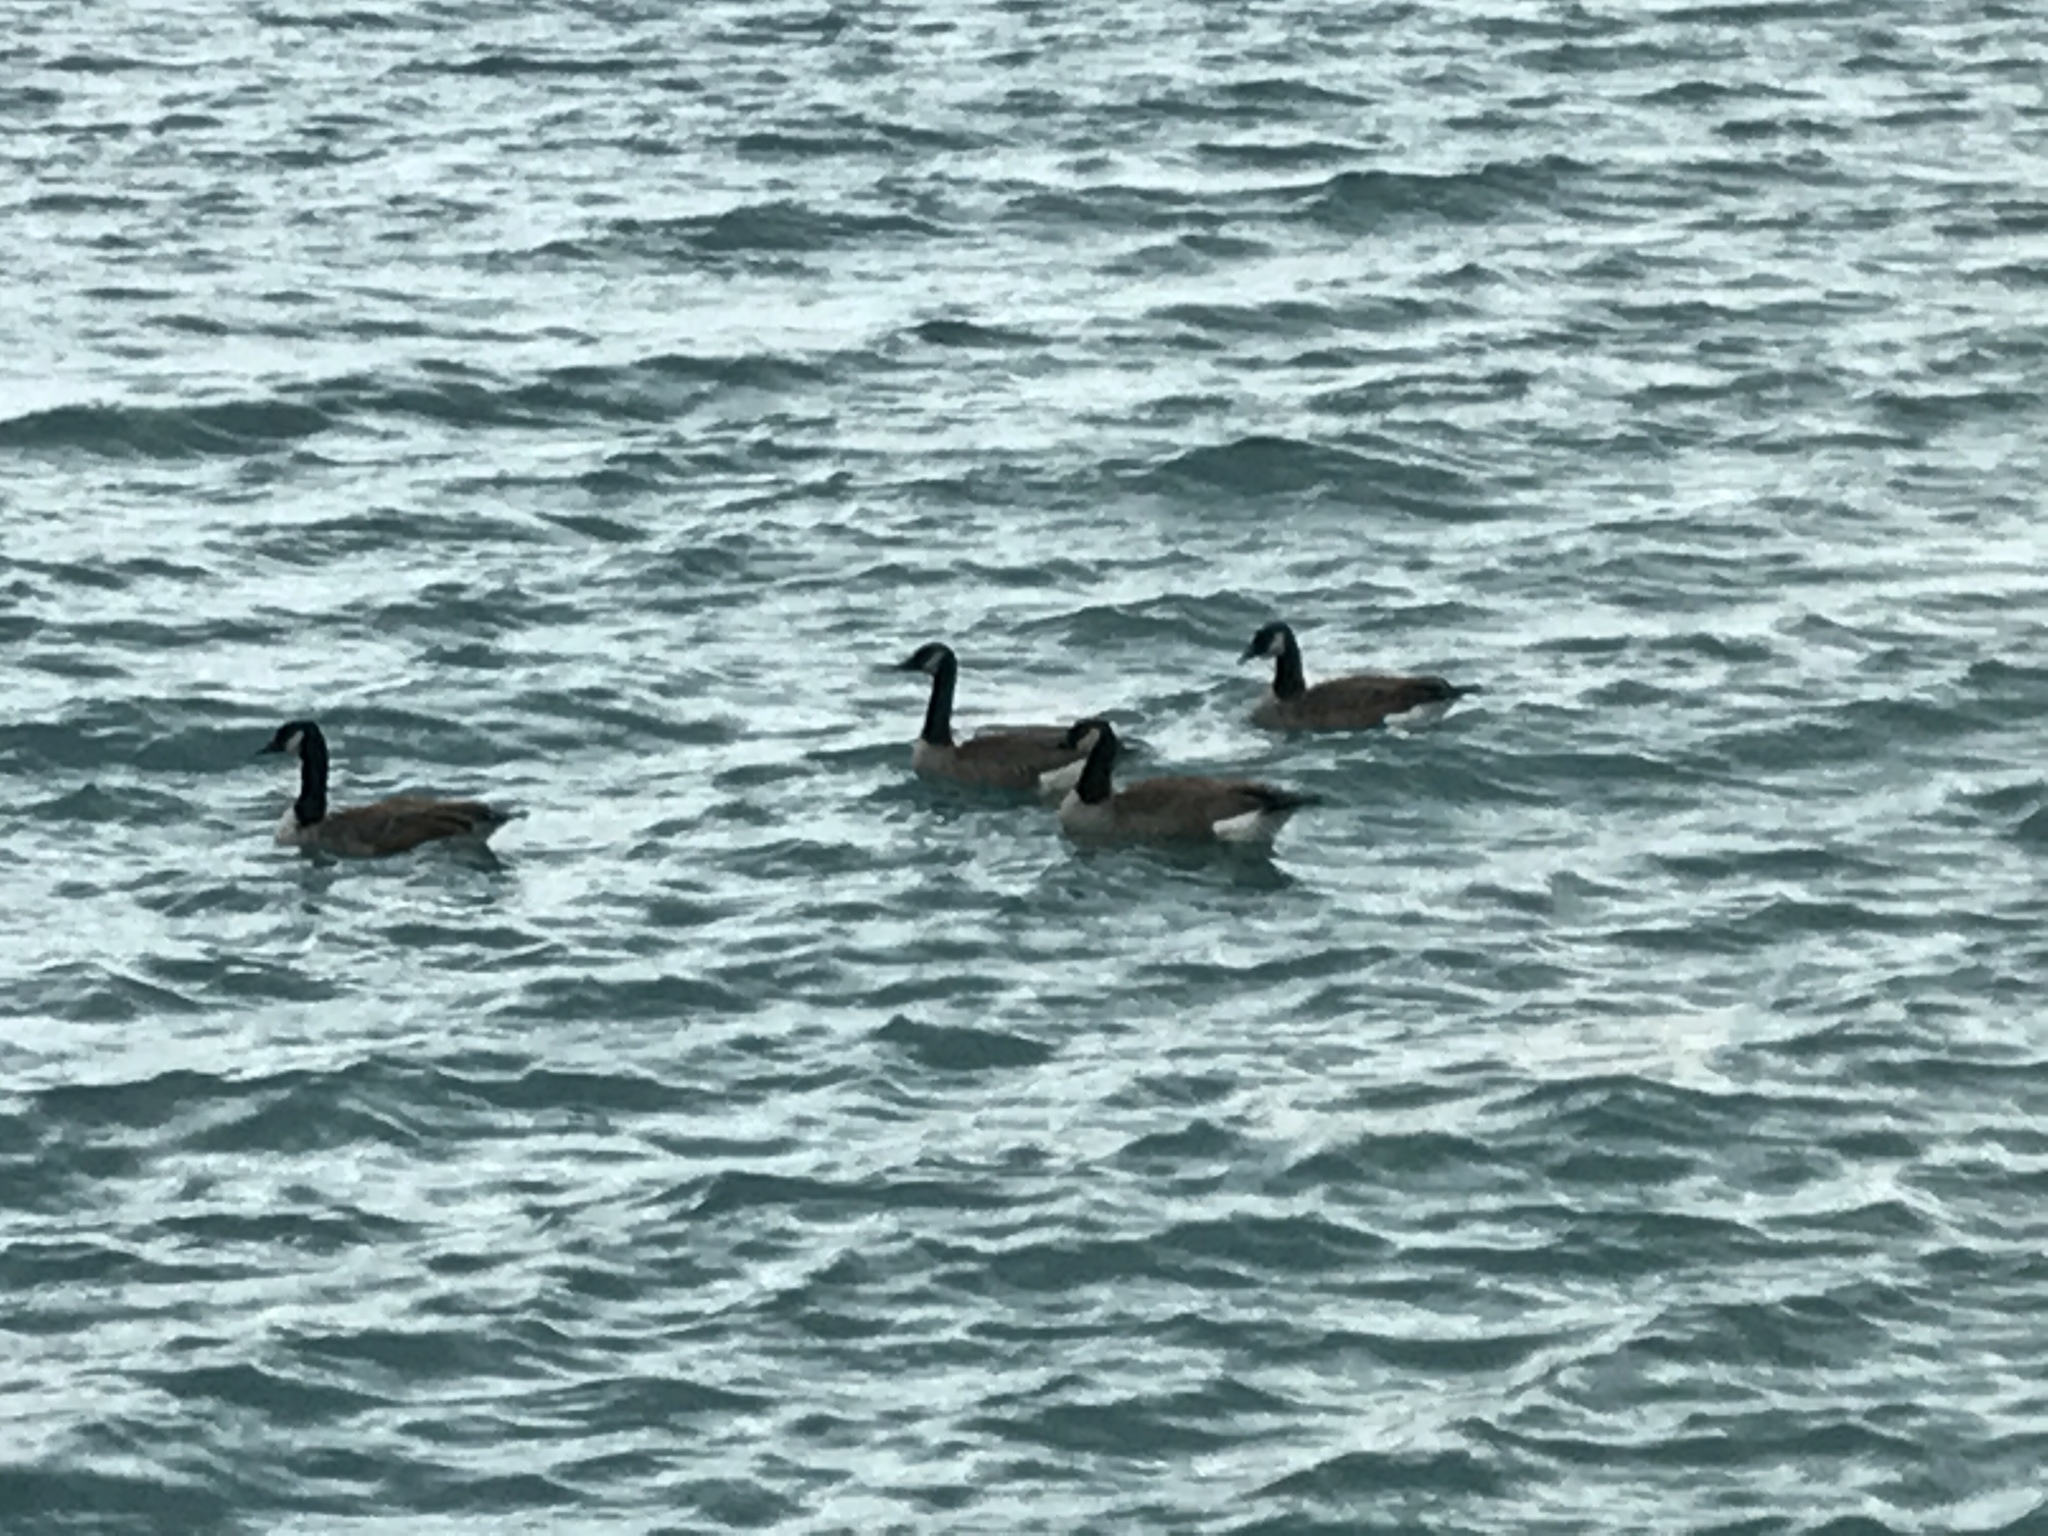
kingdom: Animalia
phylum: Chordata
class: Aves
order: Anseriformes
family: Anatidae
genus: Branta
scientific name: Branta canadensis
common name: Canada goose
